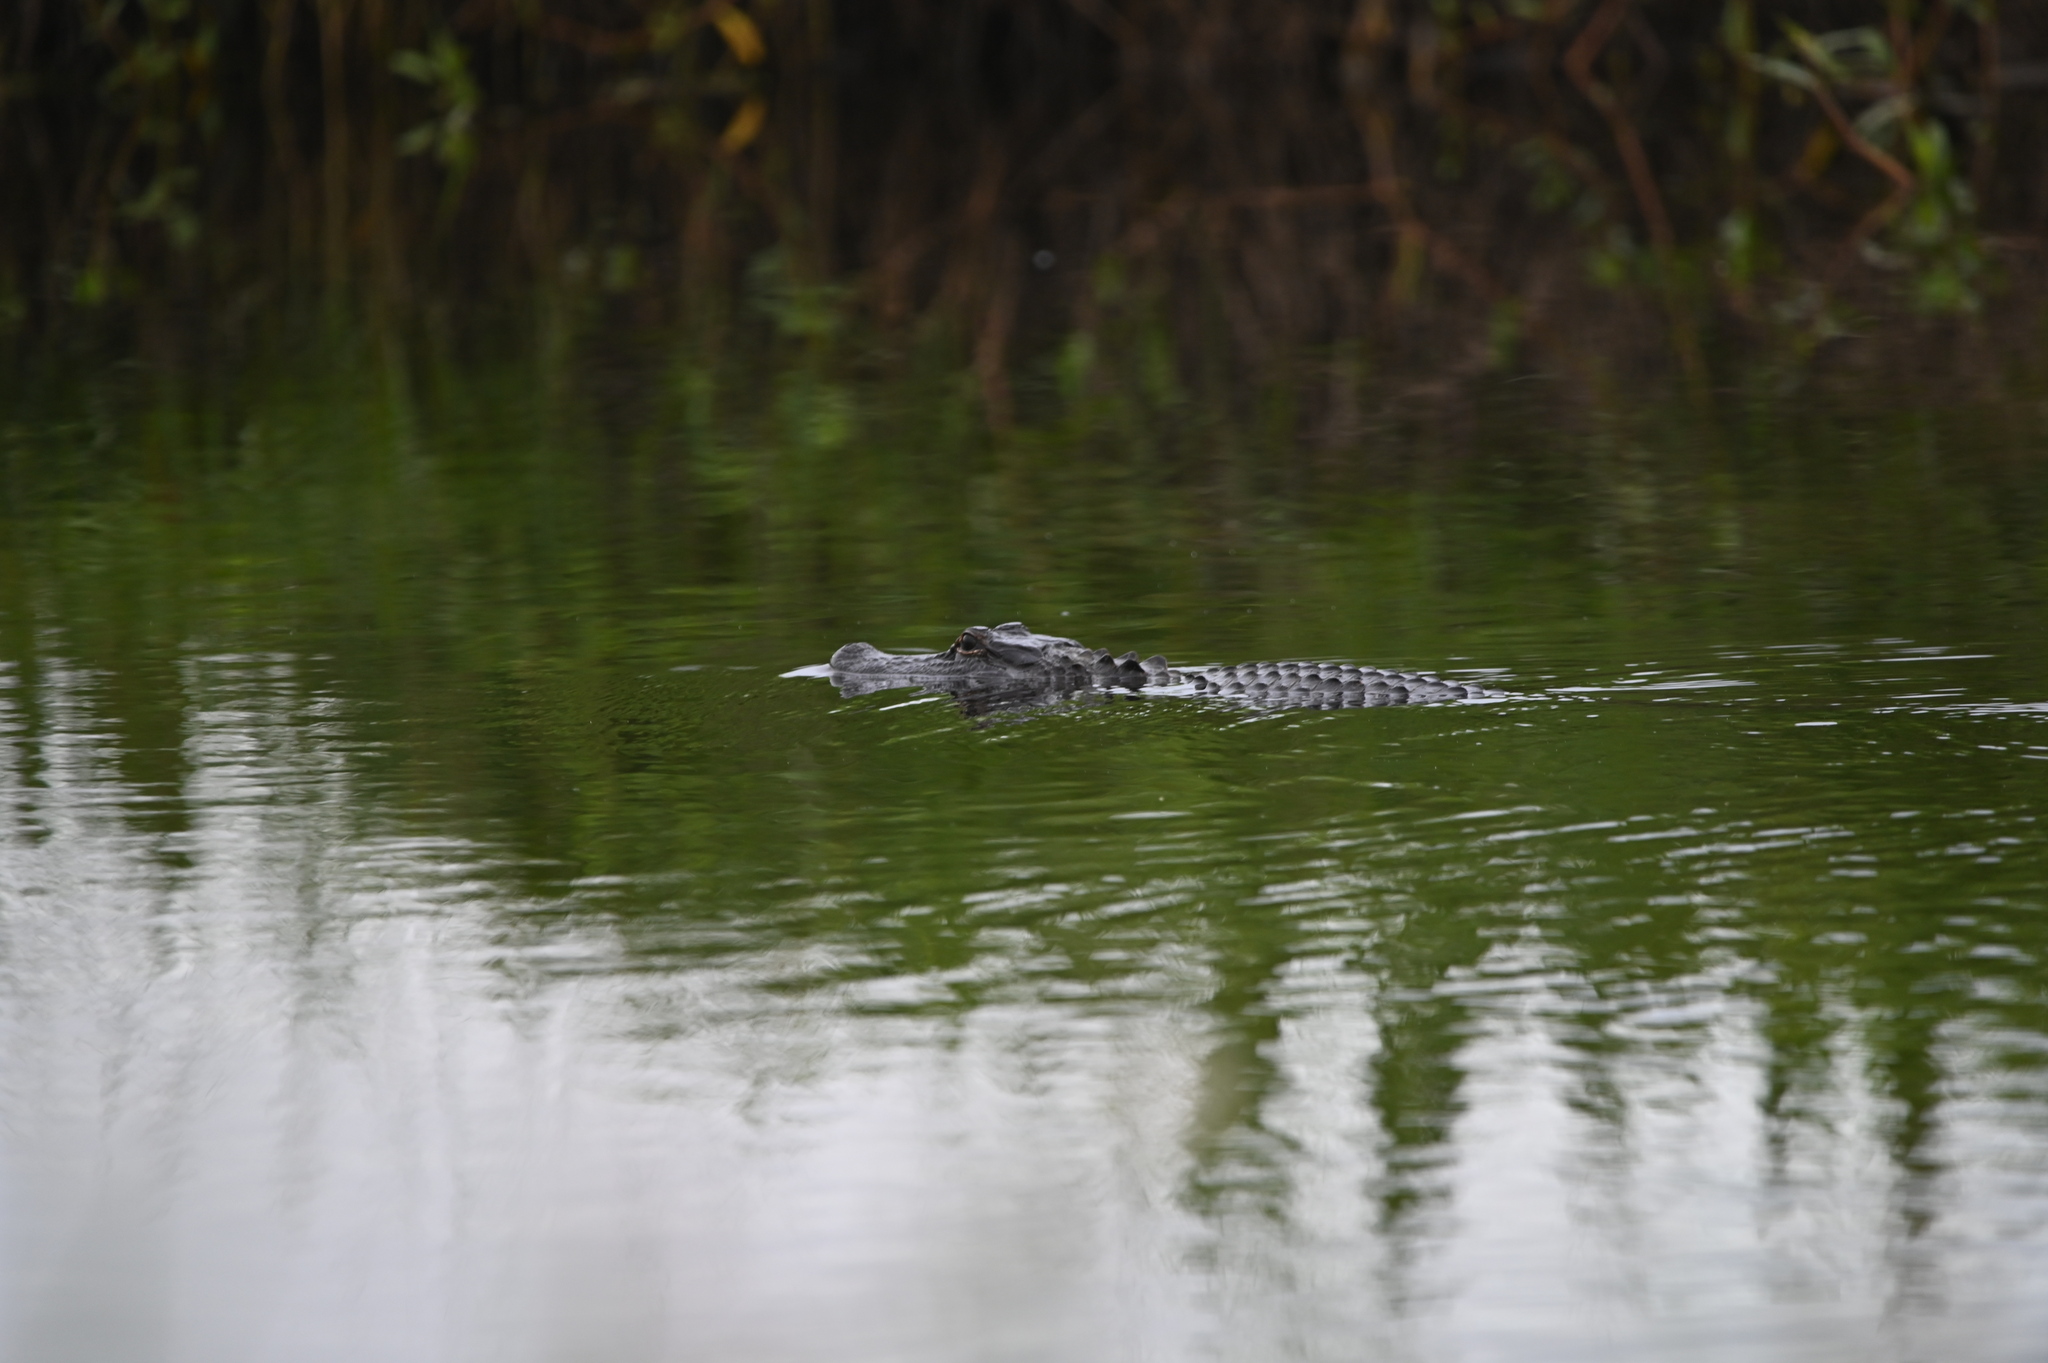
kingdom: Animalia
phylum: Chordata
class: Crocodylia
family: Alligatoridae
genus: Alligator
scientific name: Alligator mississippiensis
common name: American alligator
